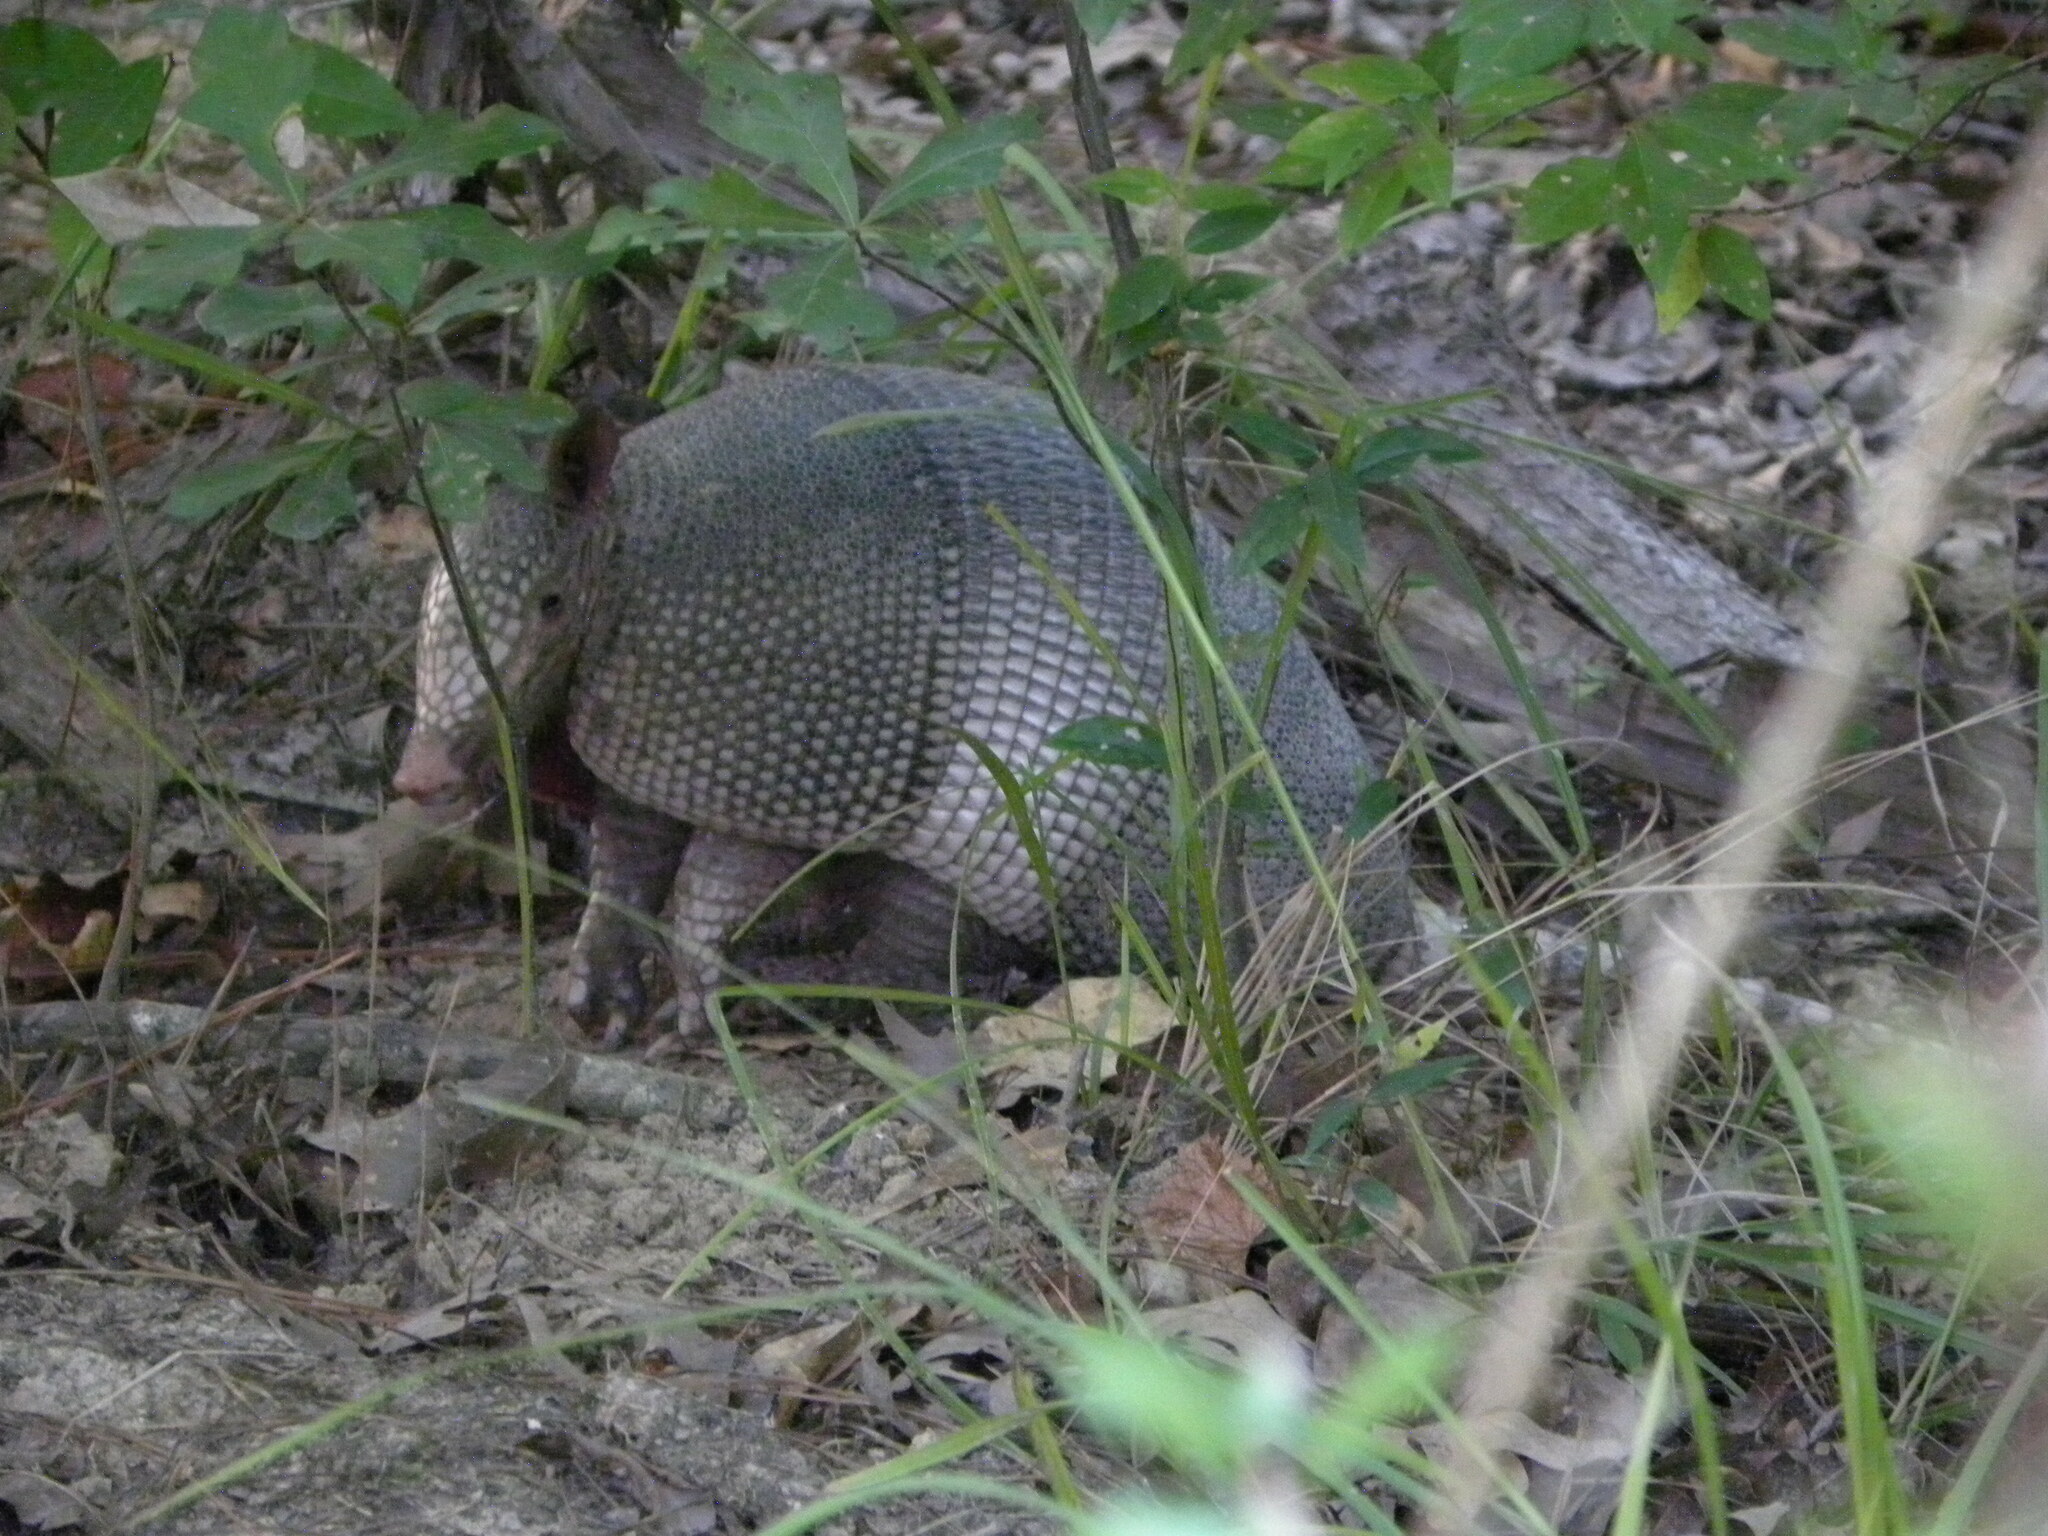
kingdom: Animalia
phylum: Chordata
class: Mammalia
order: Cingulata
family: Dasypodidae
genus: Dasypus
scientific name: Dasypus novemcinctus
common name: Nine-banded armadillo
